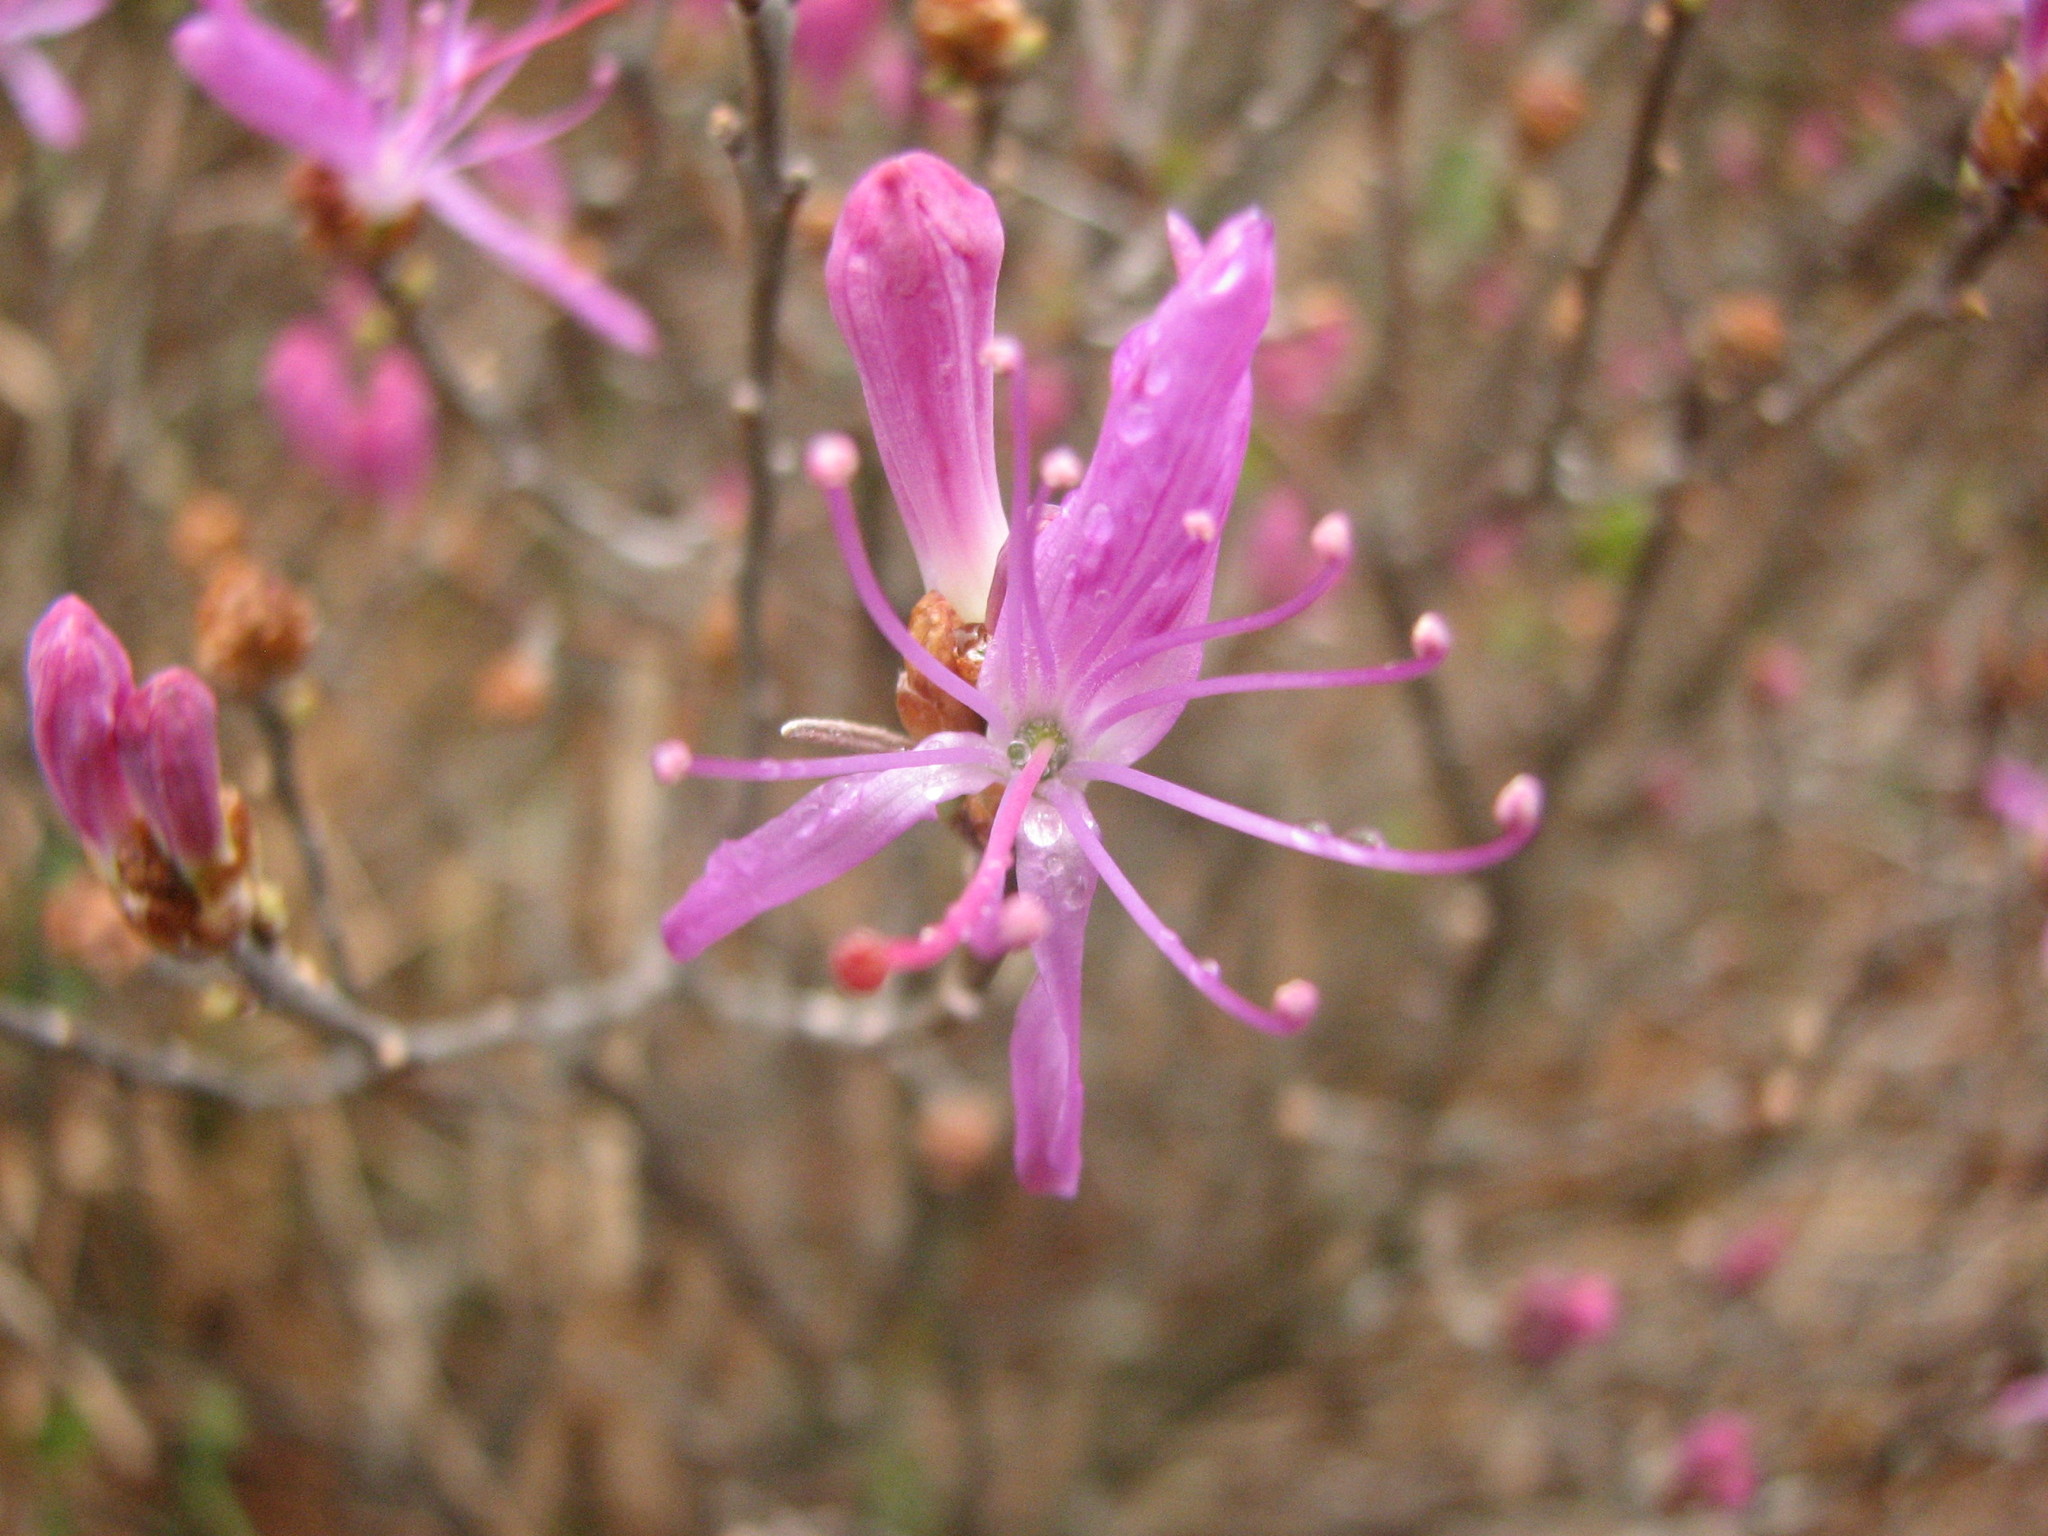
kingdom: Plantae
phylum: Tracheophyta
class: Magnoliopsida
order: Ericales
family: Ericaceae
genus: Rhododendron
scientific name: Rhododendron canadense
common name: Rhodora
